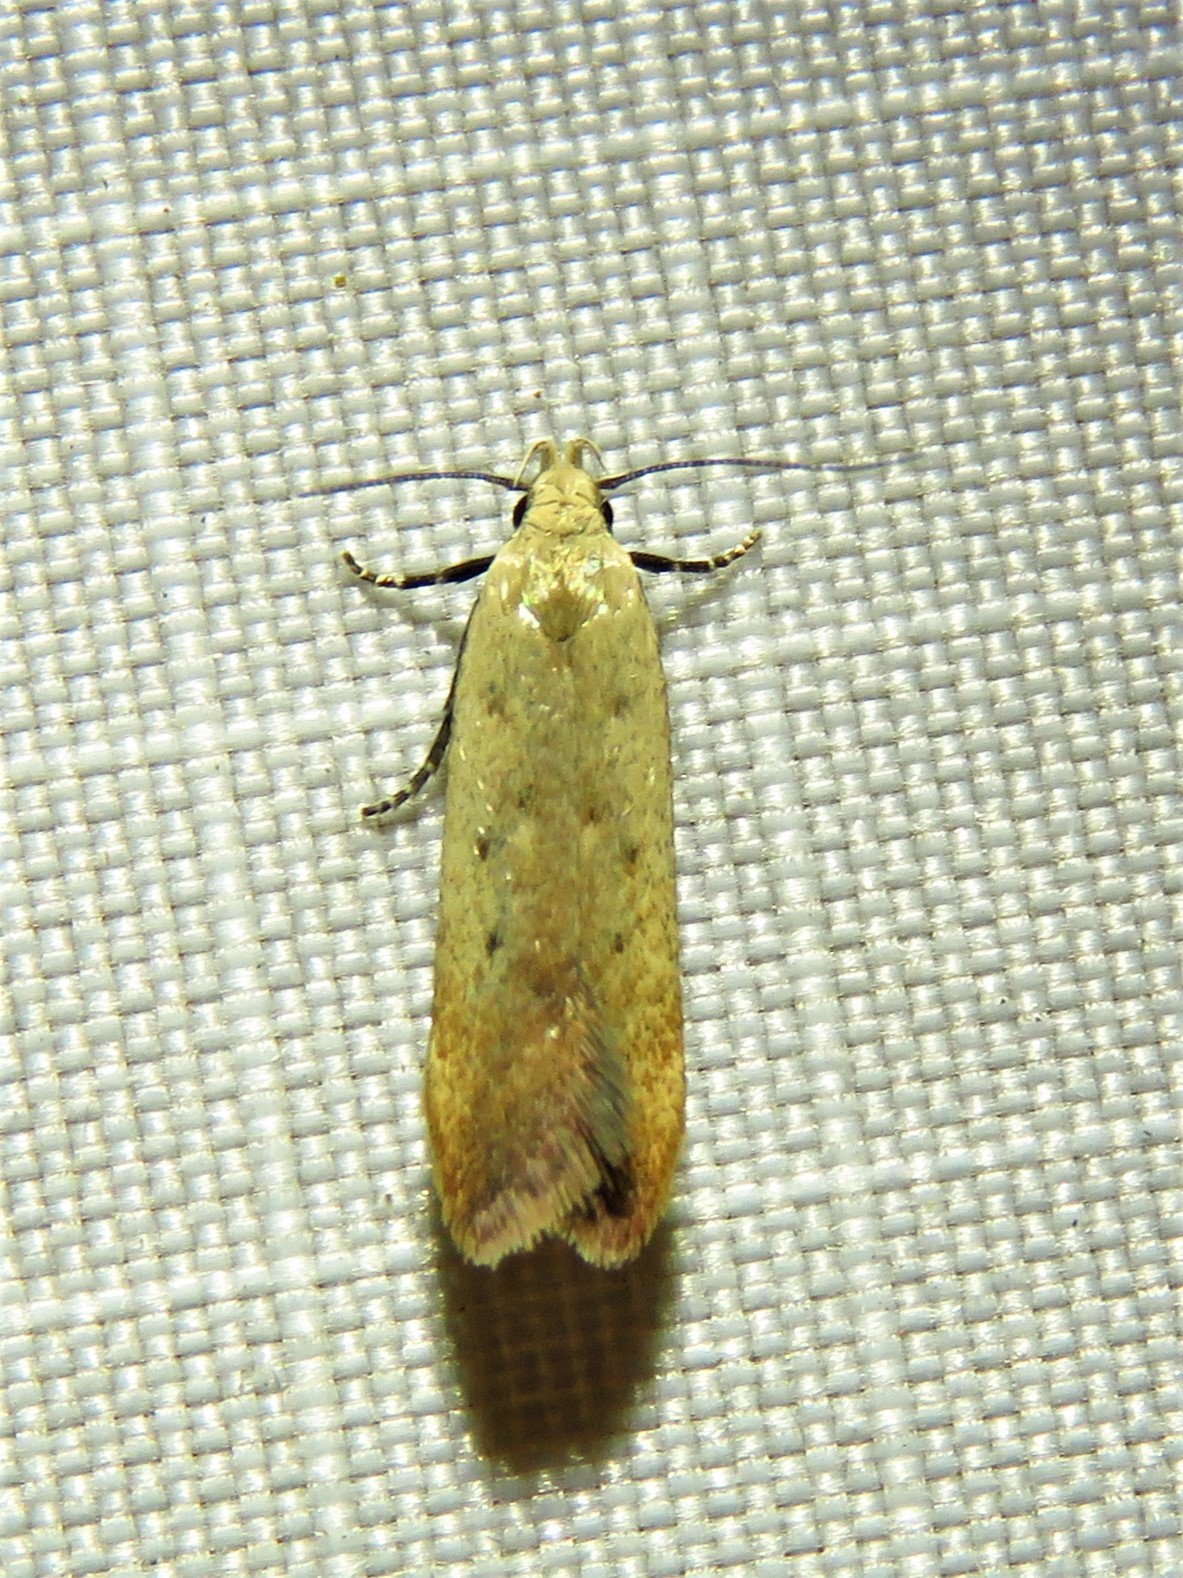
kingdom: Animalia
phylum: Arthropoda
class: Insecta
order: Lepidoptera
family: Gelechiidae
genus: Anacampsis
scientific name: Anacampsis fullonella
